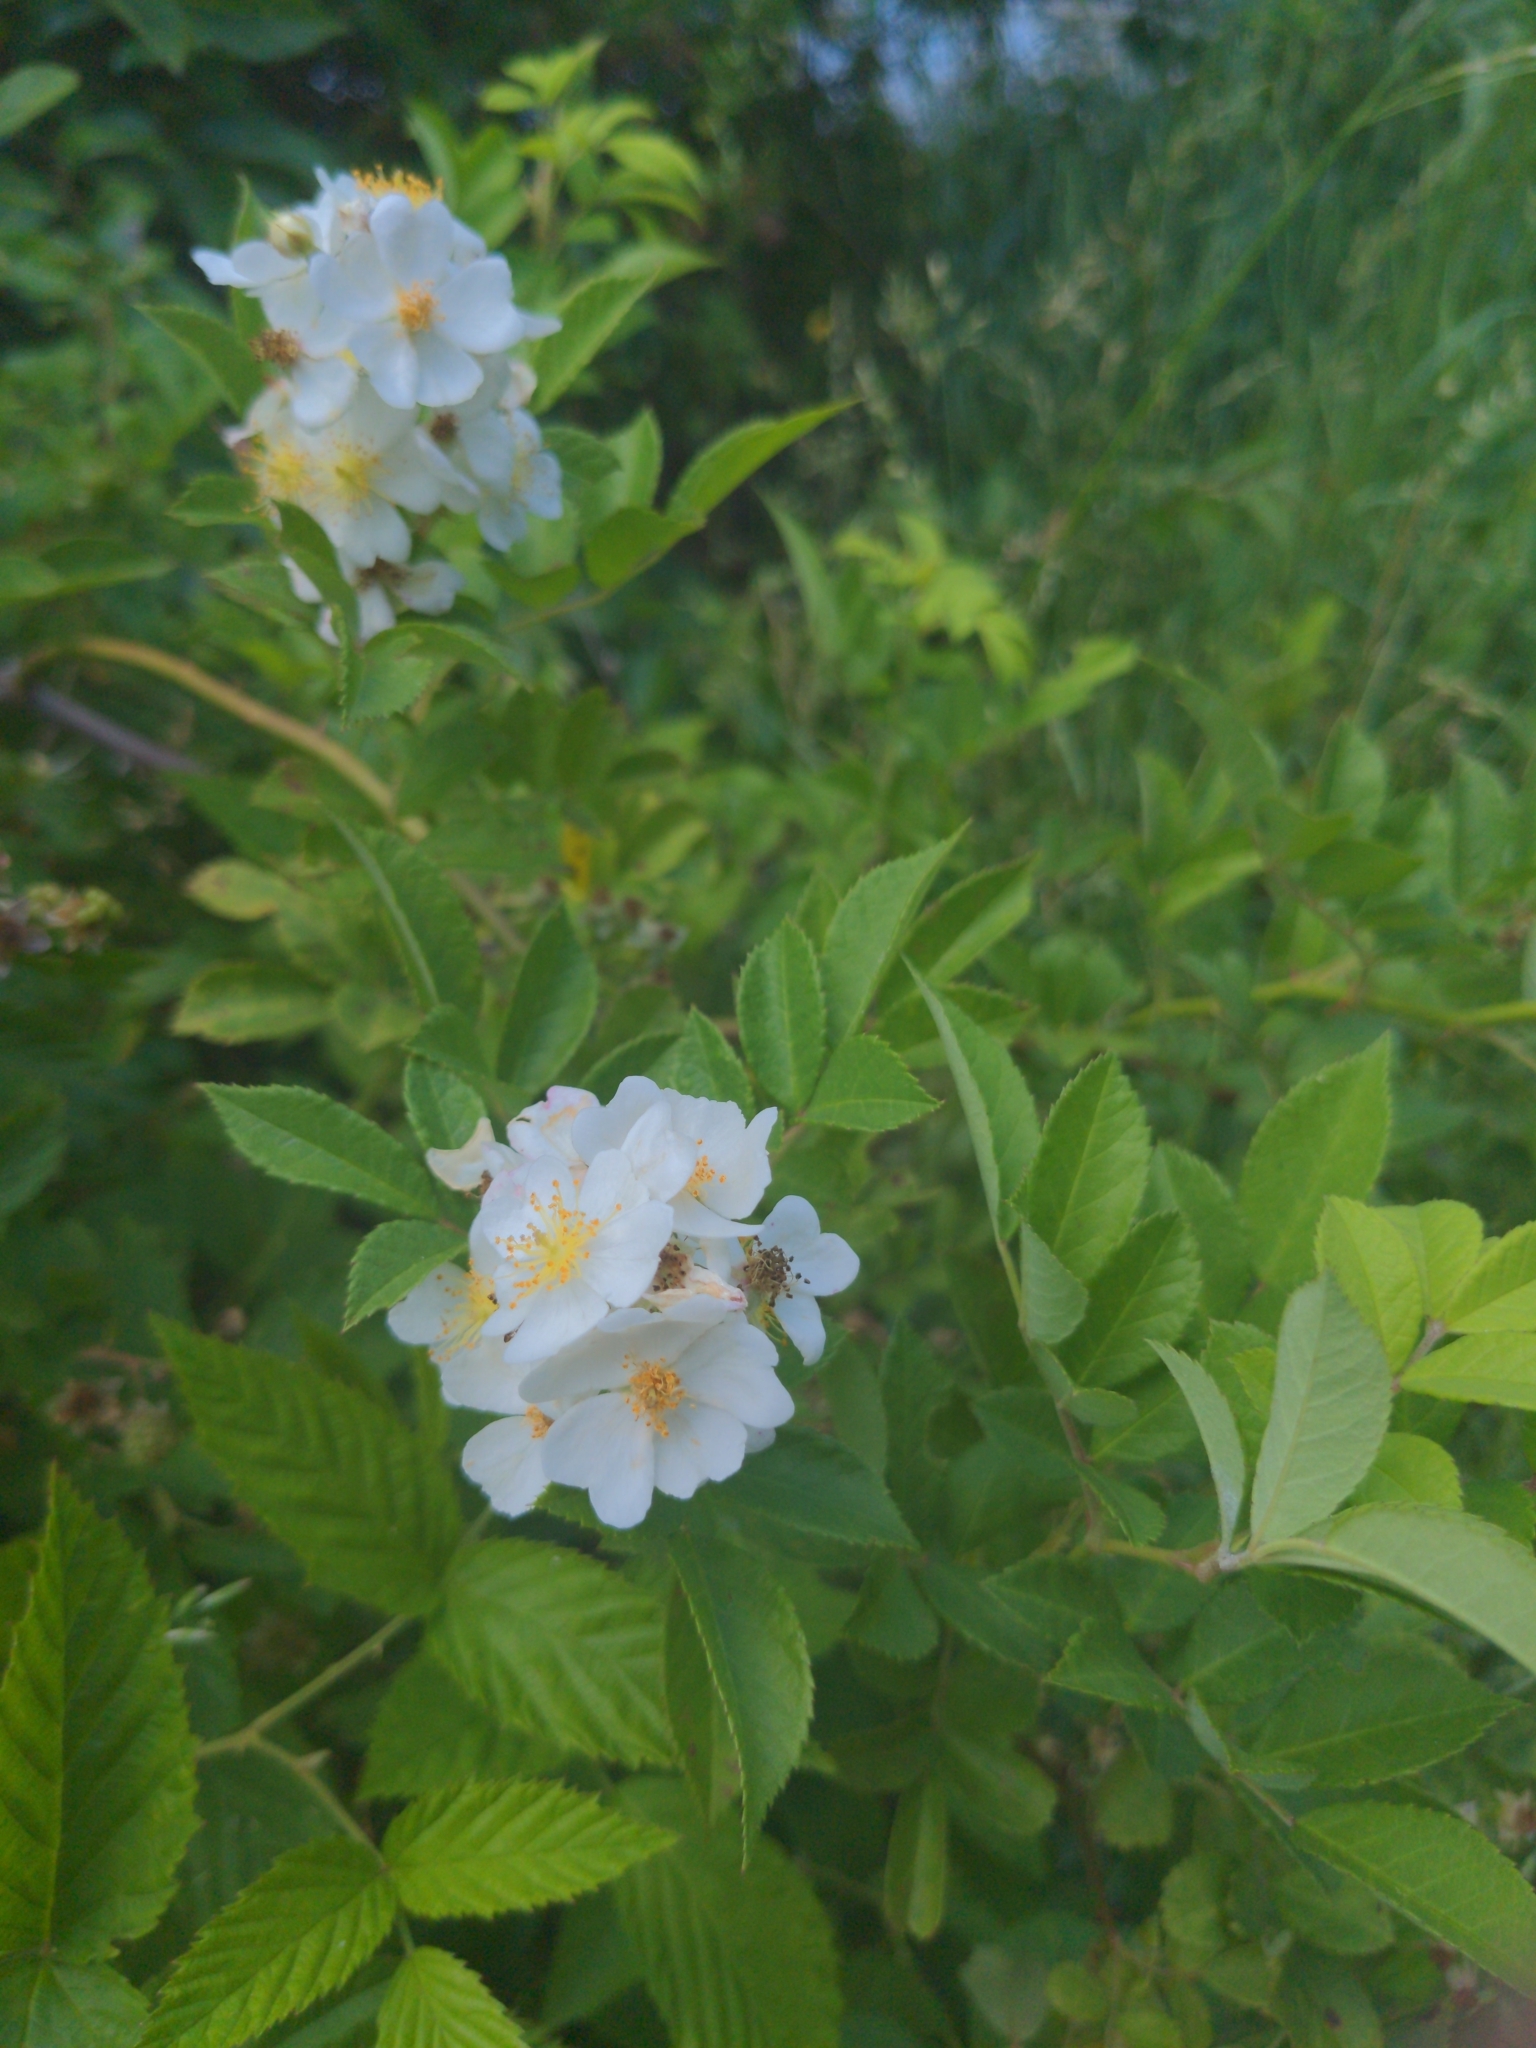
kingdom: Plantae
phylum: Tracheophyta
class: Magnoliopsida
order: Rosales
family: Rosaceae
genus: Rosa
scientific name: Rosa multiflora
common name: Multiflora rose
